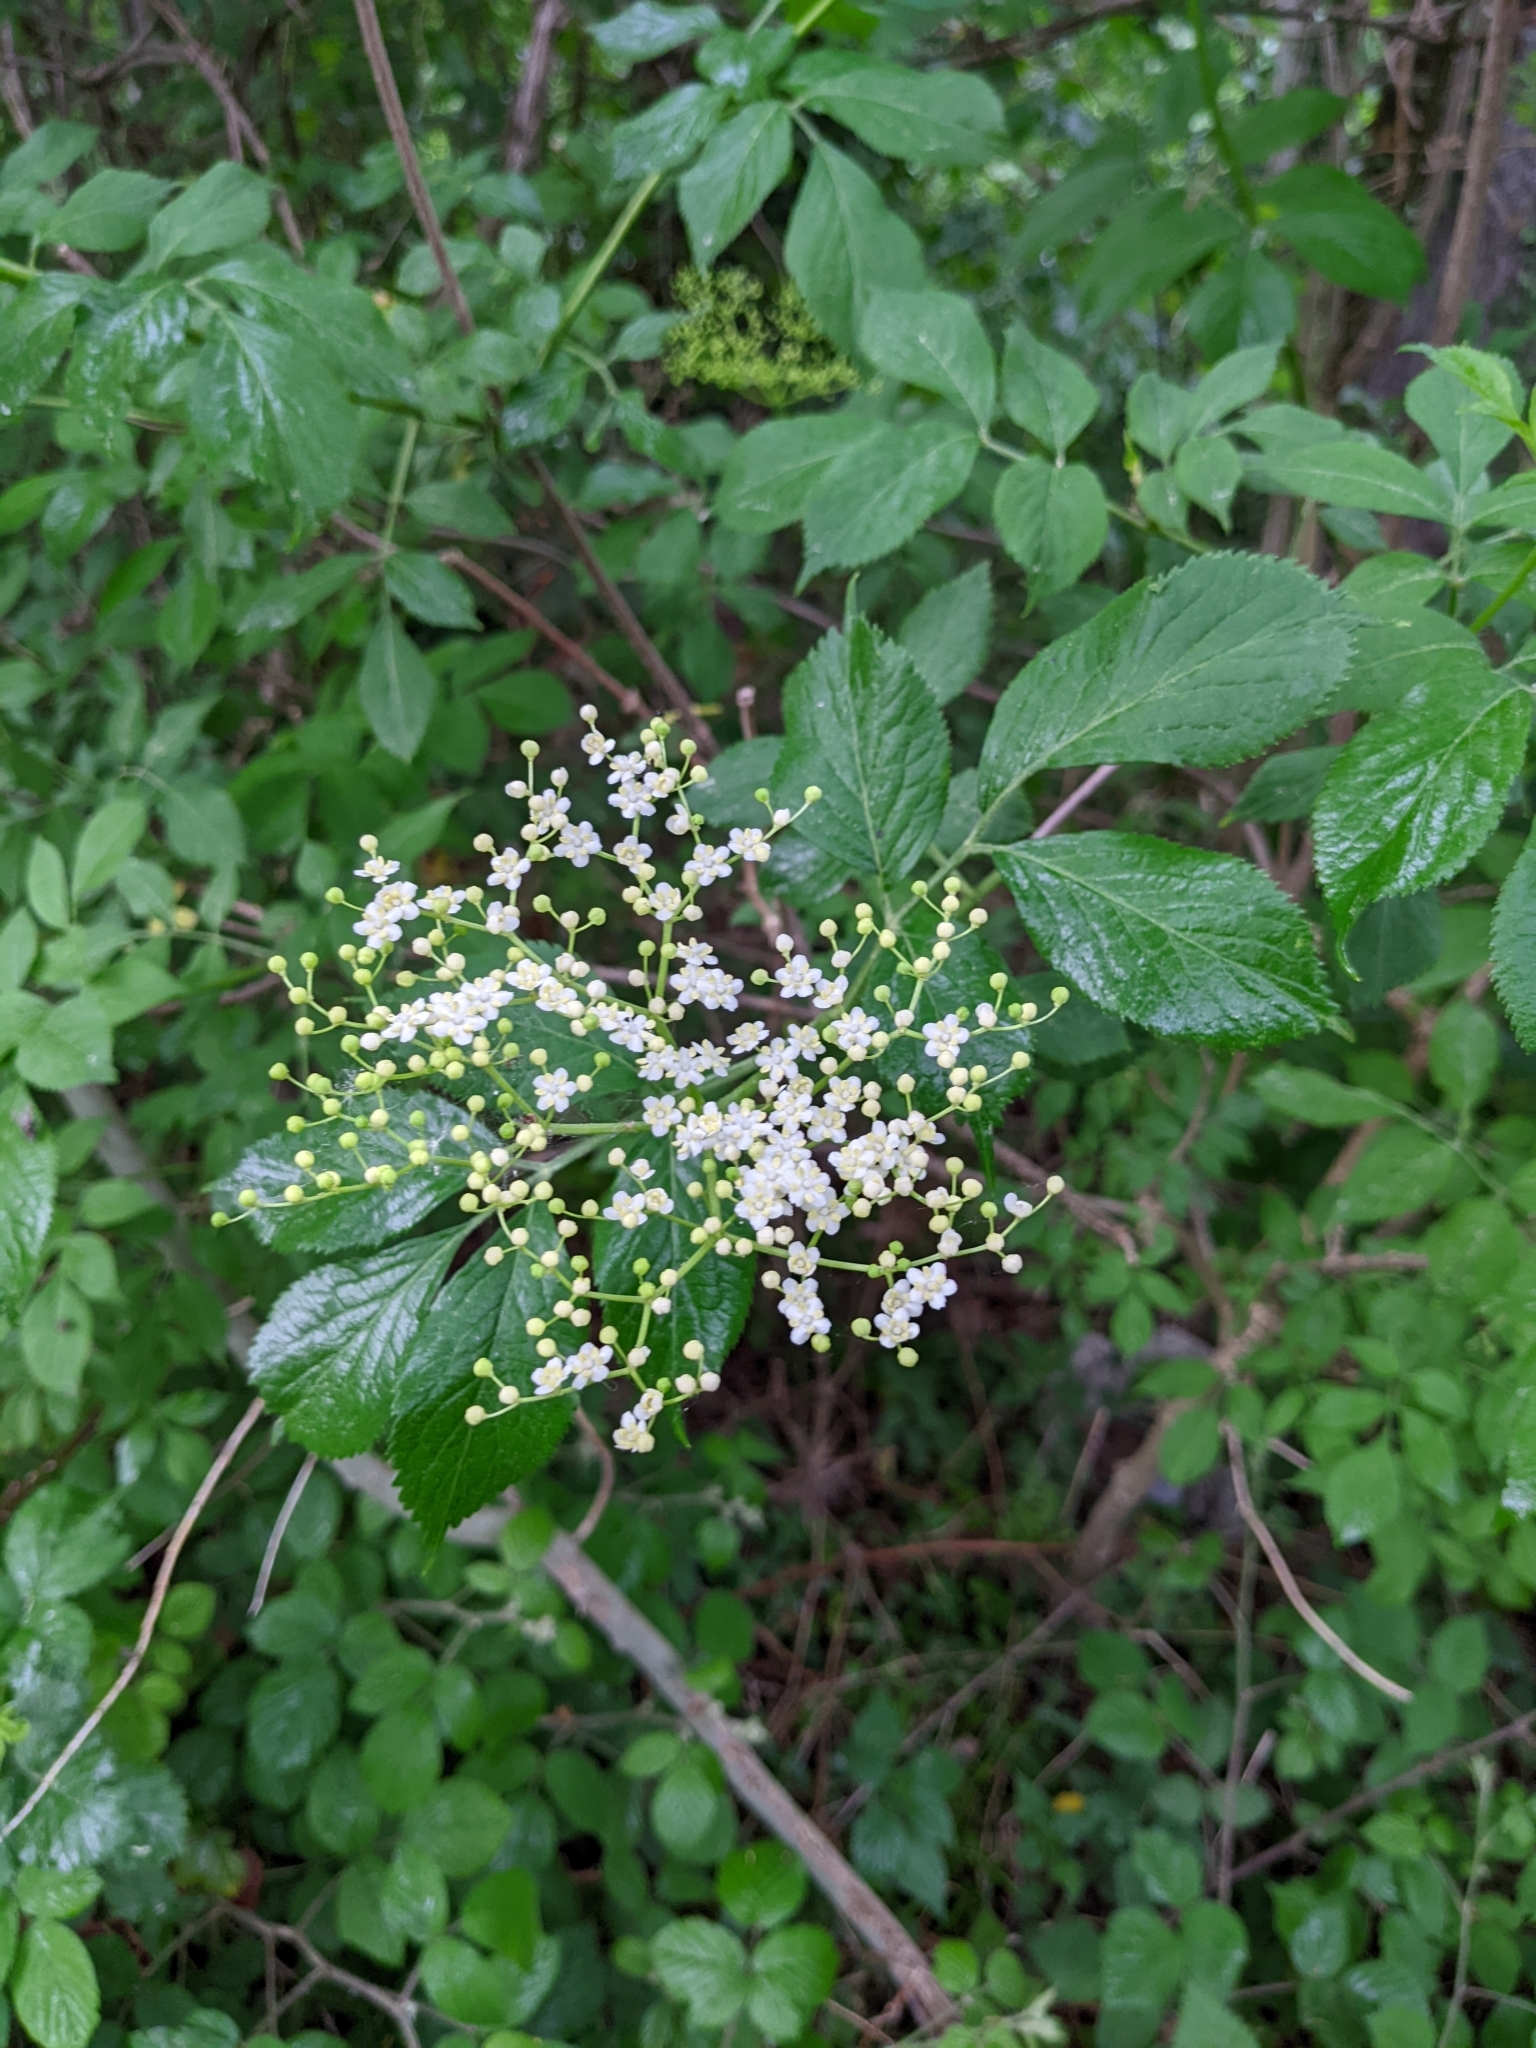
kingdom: Plantae
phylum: Tracheophyta
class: Magnoliopsida
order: Dipsacales
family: Viburnaceae
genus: Sambucus
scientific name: Sambucus nigra
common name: Elder
